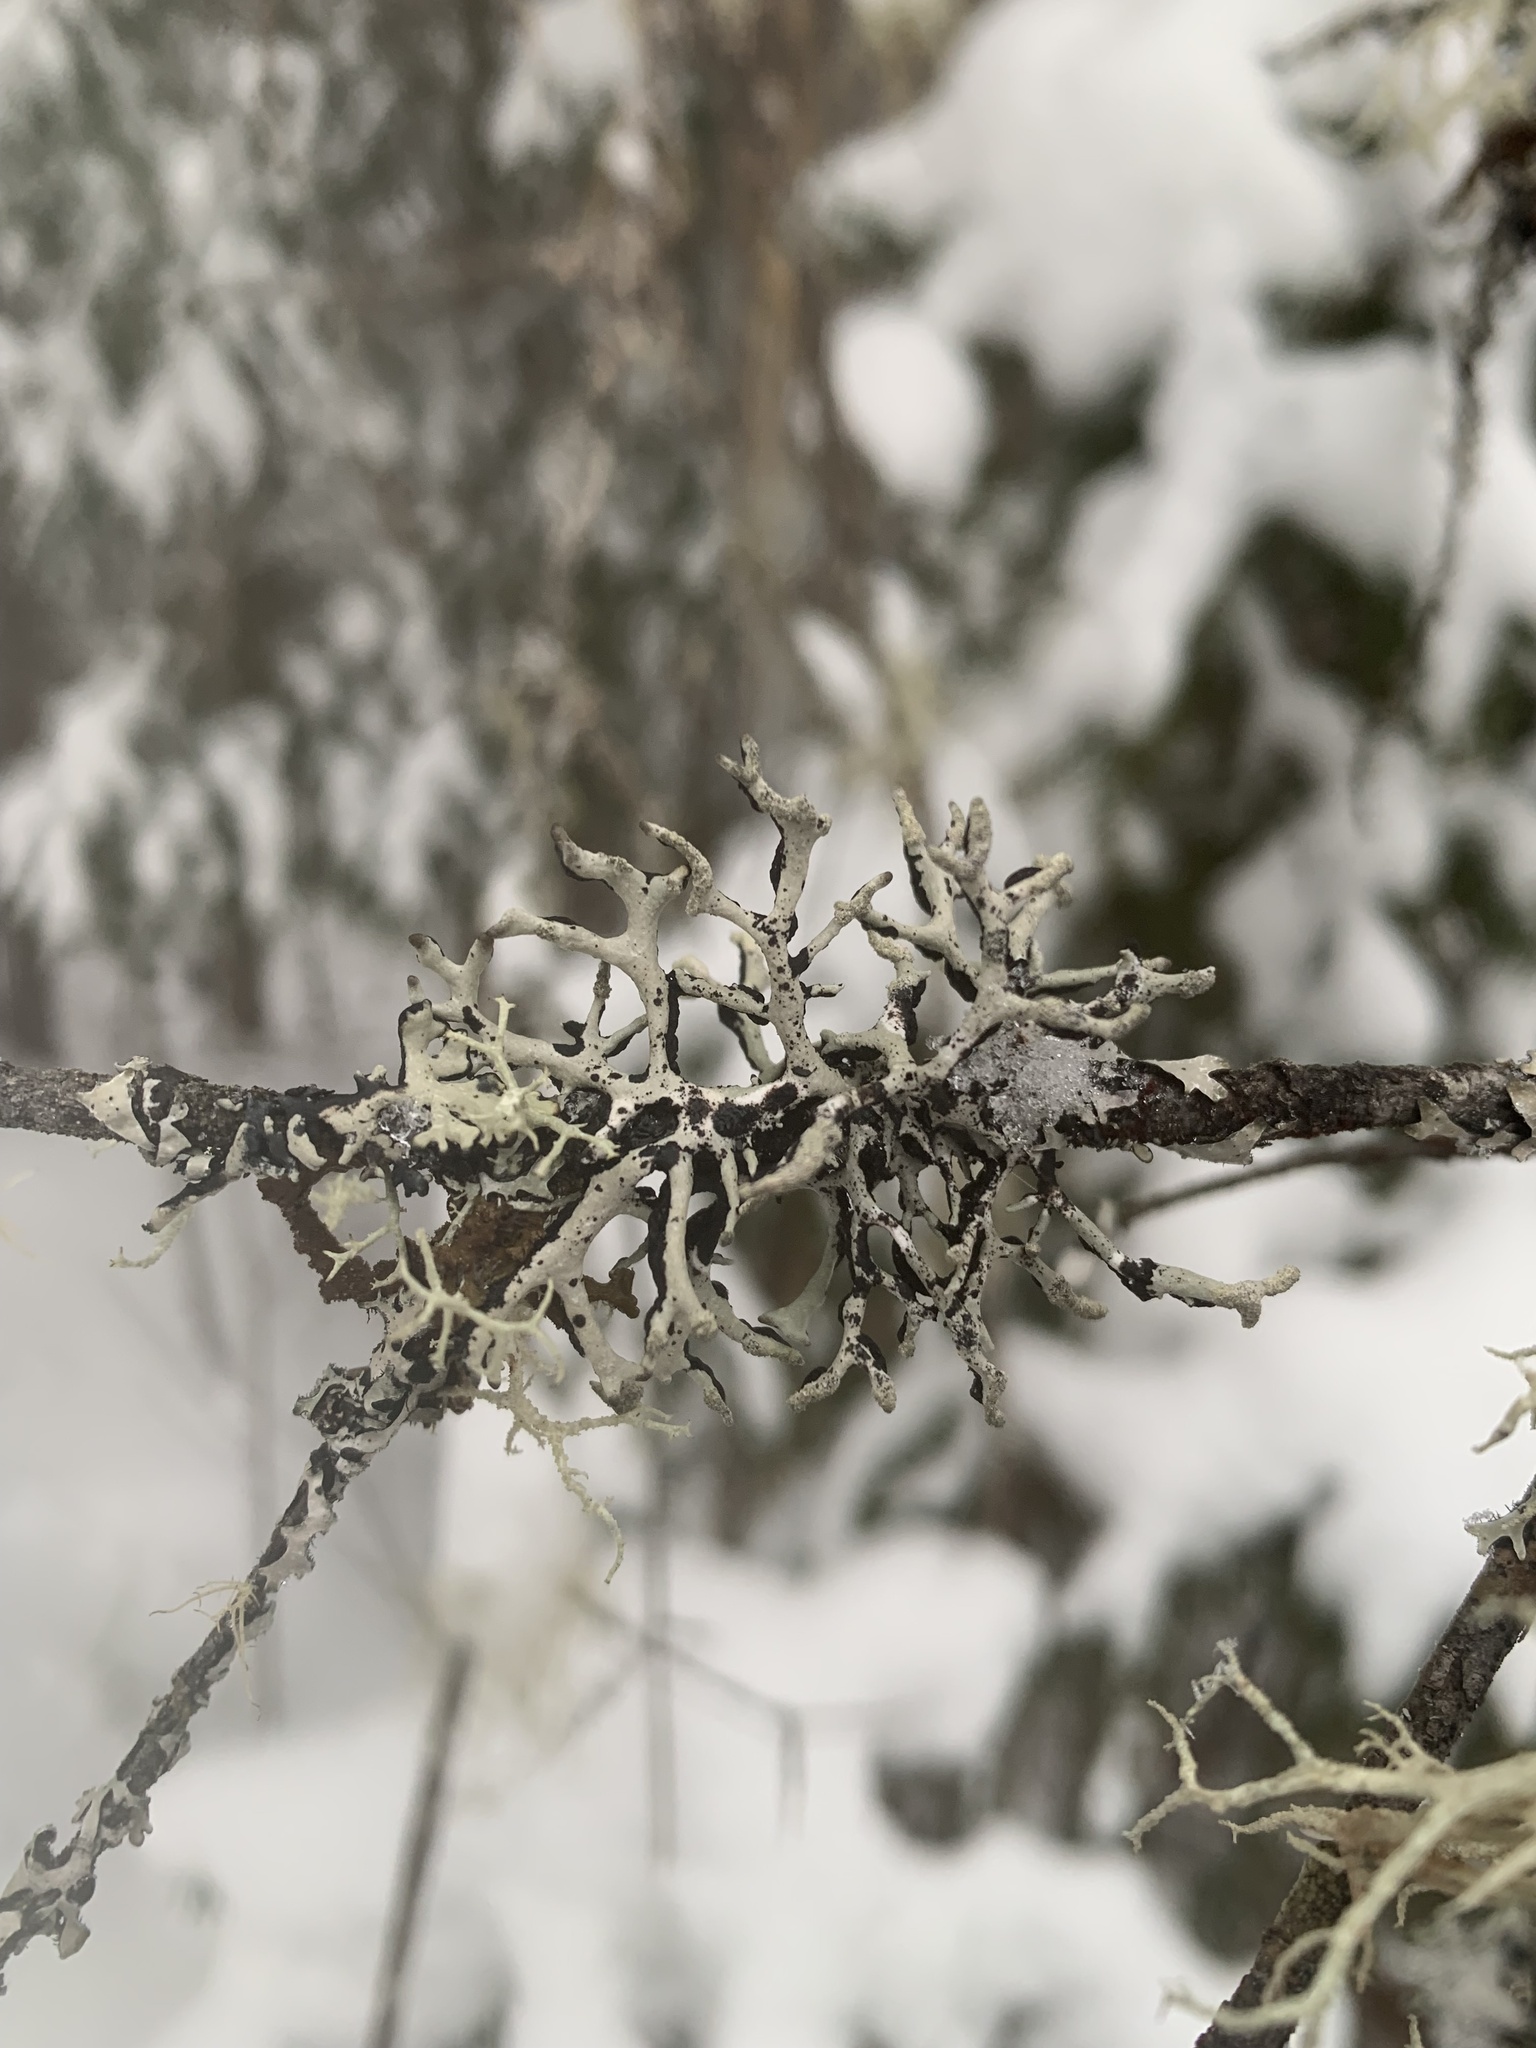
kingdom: Fungi
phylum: Ascomycota
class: Lecanoromycetes
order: Lecanorales
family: Parmeliaceae
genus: Hypogymnia
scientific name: Hypogymnia tubulosa
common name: Powder-headed tube lichen
